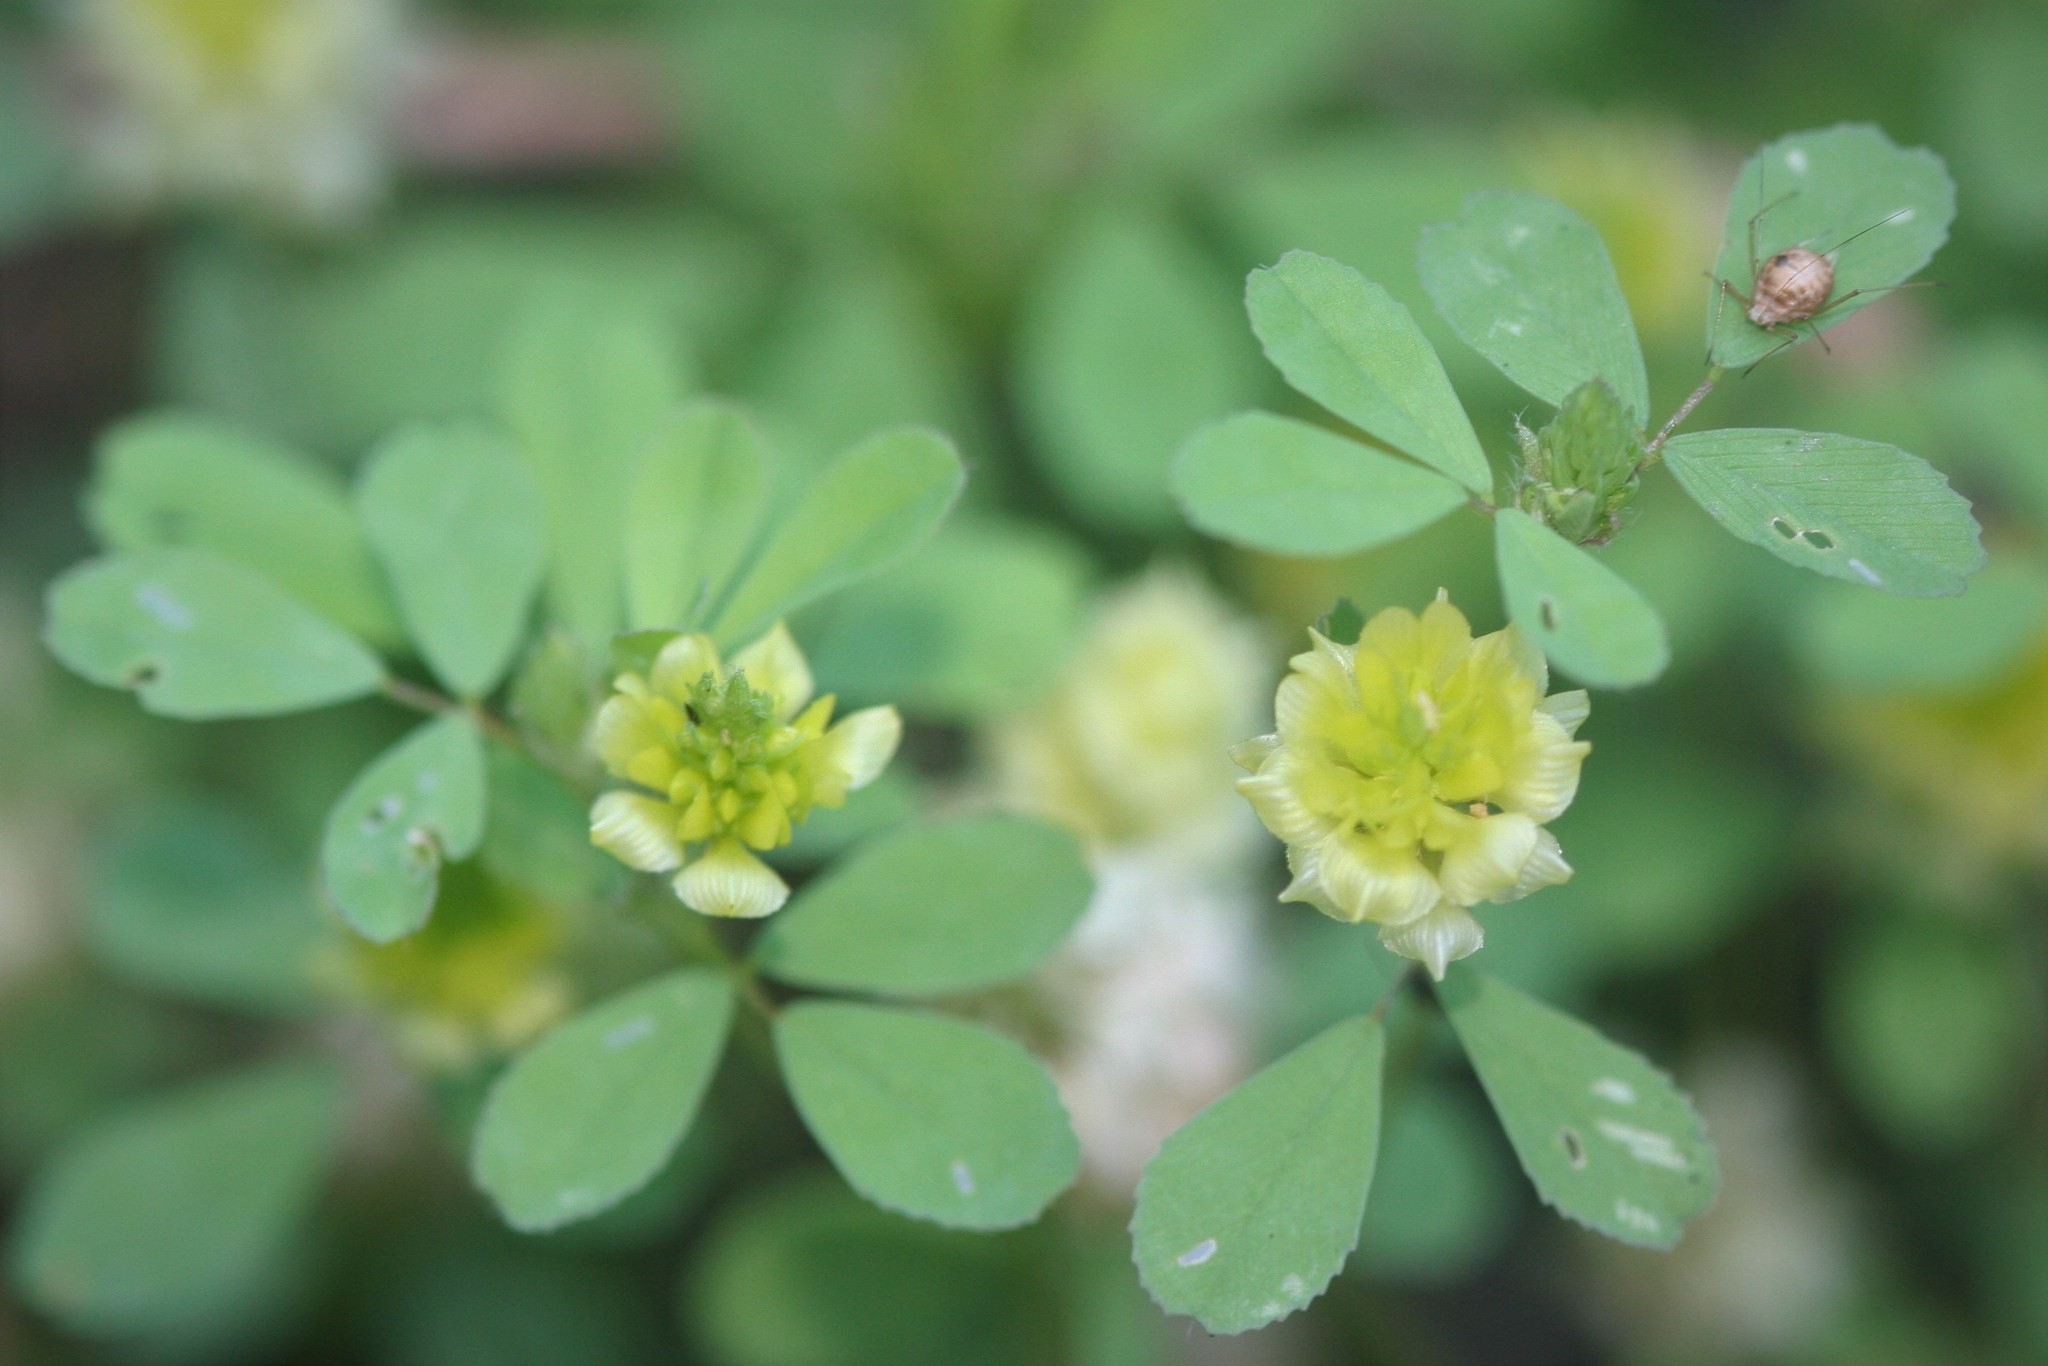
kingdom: Plantae
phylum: Tracheophyta
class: Magnoliopsida
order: Fabales
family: Fabaceae
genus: Trifolium
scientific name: Trifolium campestre
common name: Field clover
